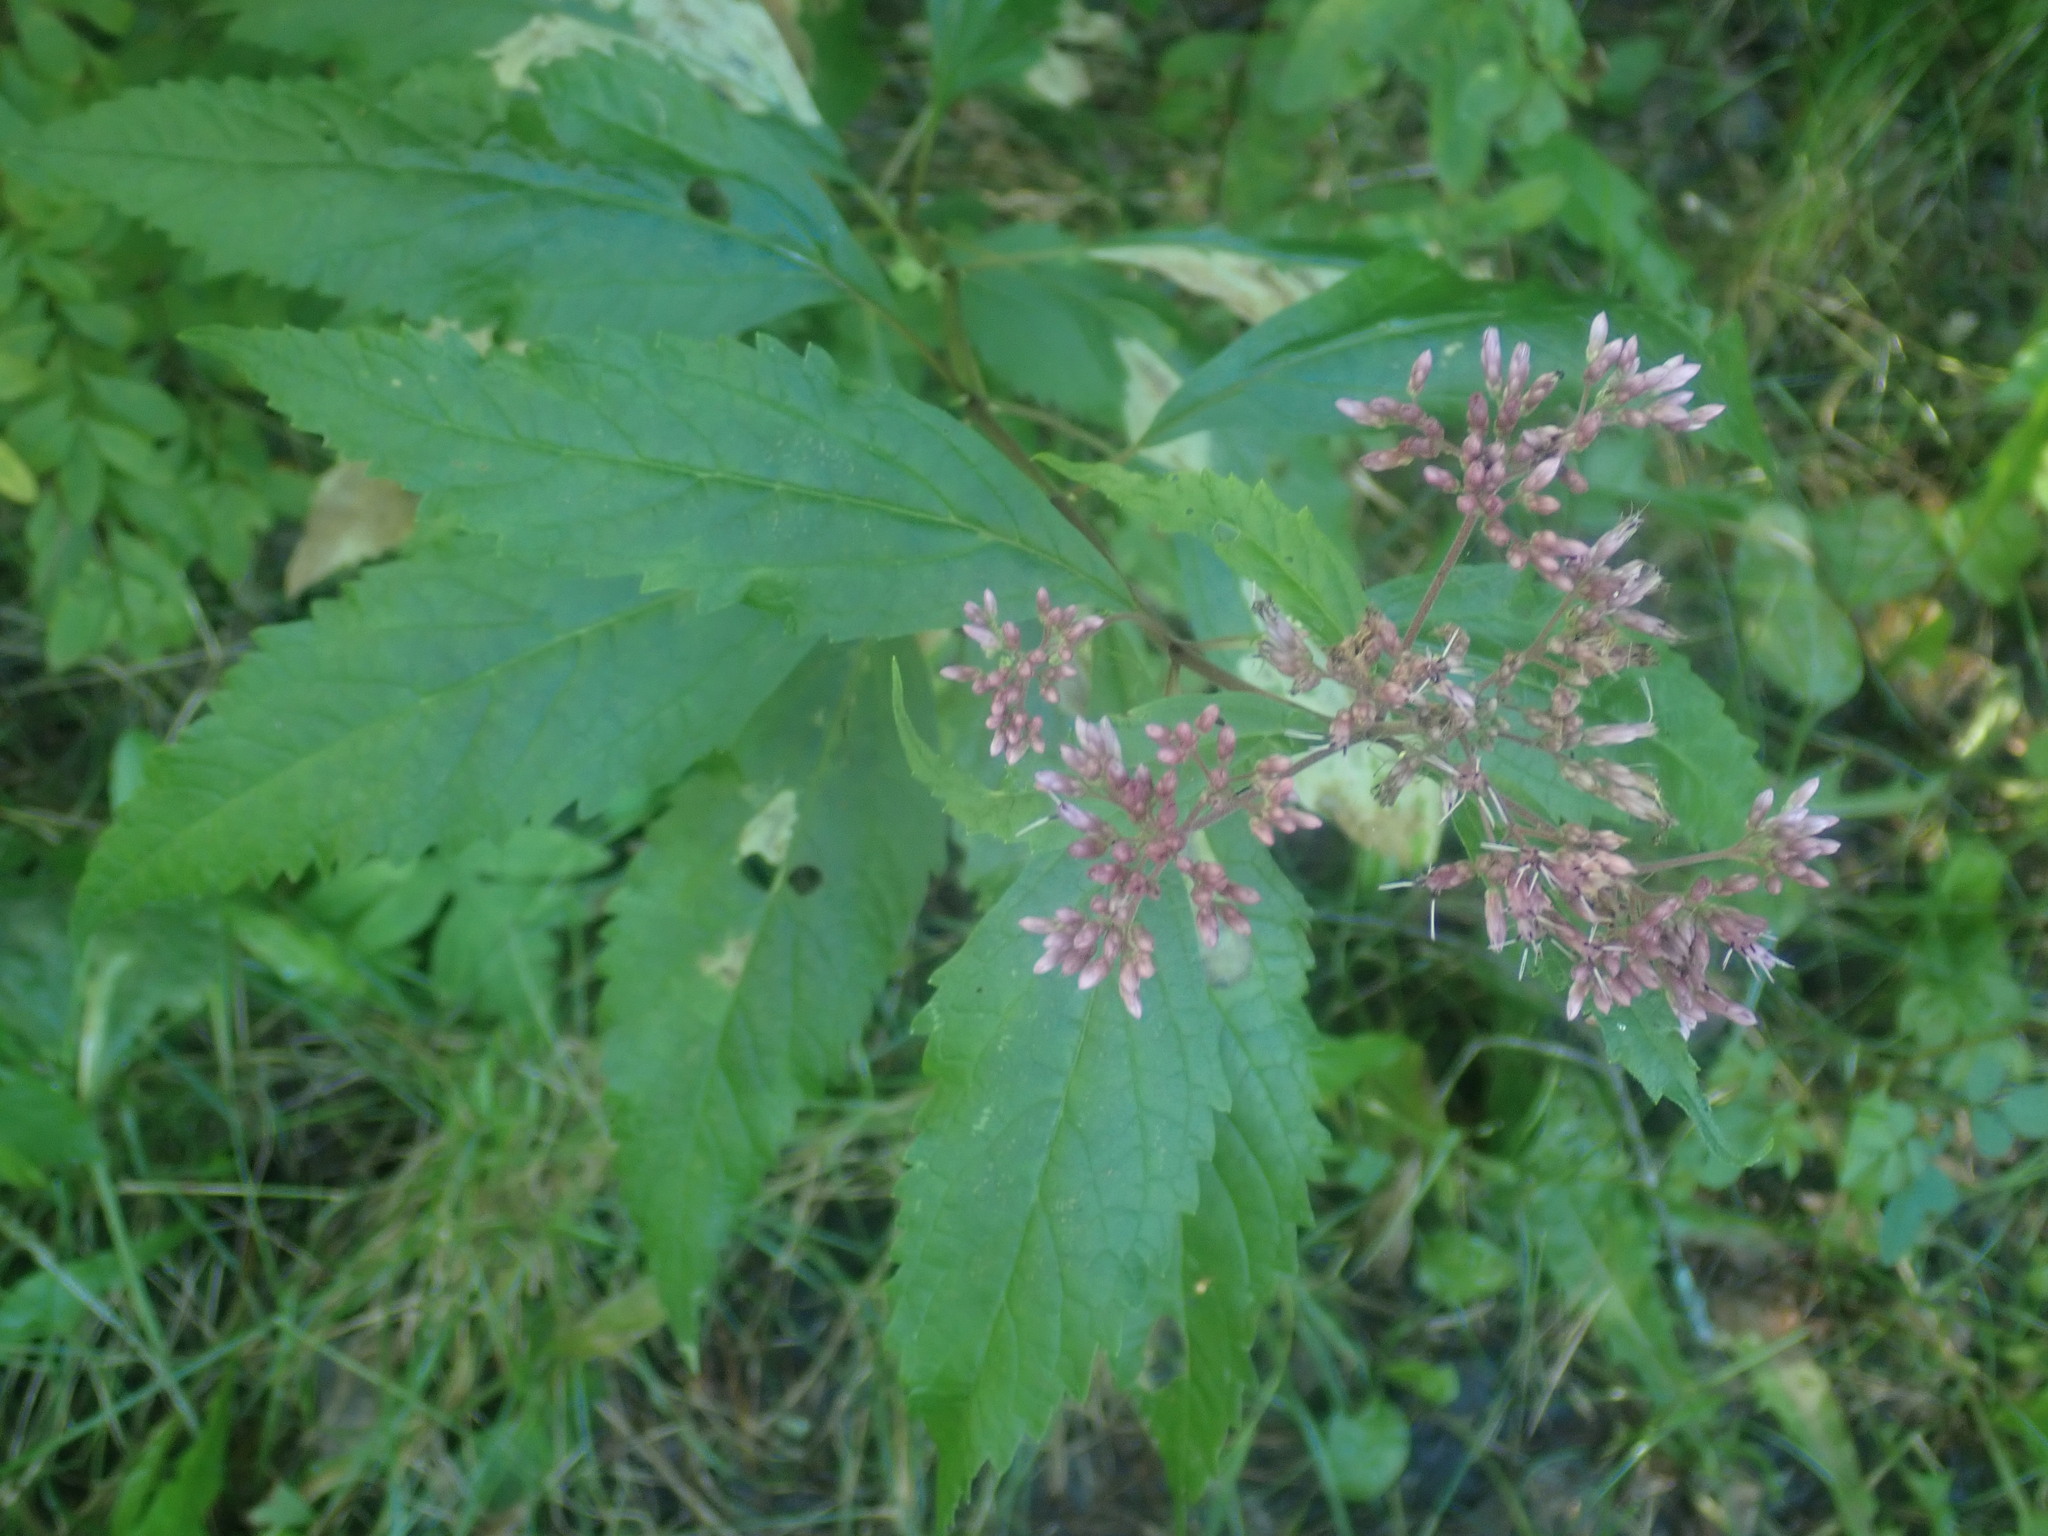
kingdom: Plantae
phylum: Tracheophyta
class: Magnoliopsida
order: Asterales
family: Asteraceae
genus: Eutrochium
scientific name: Eutrochium
